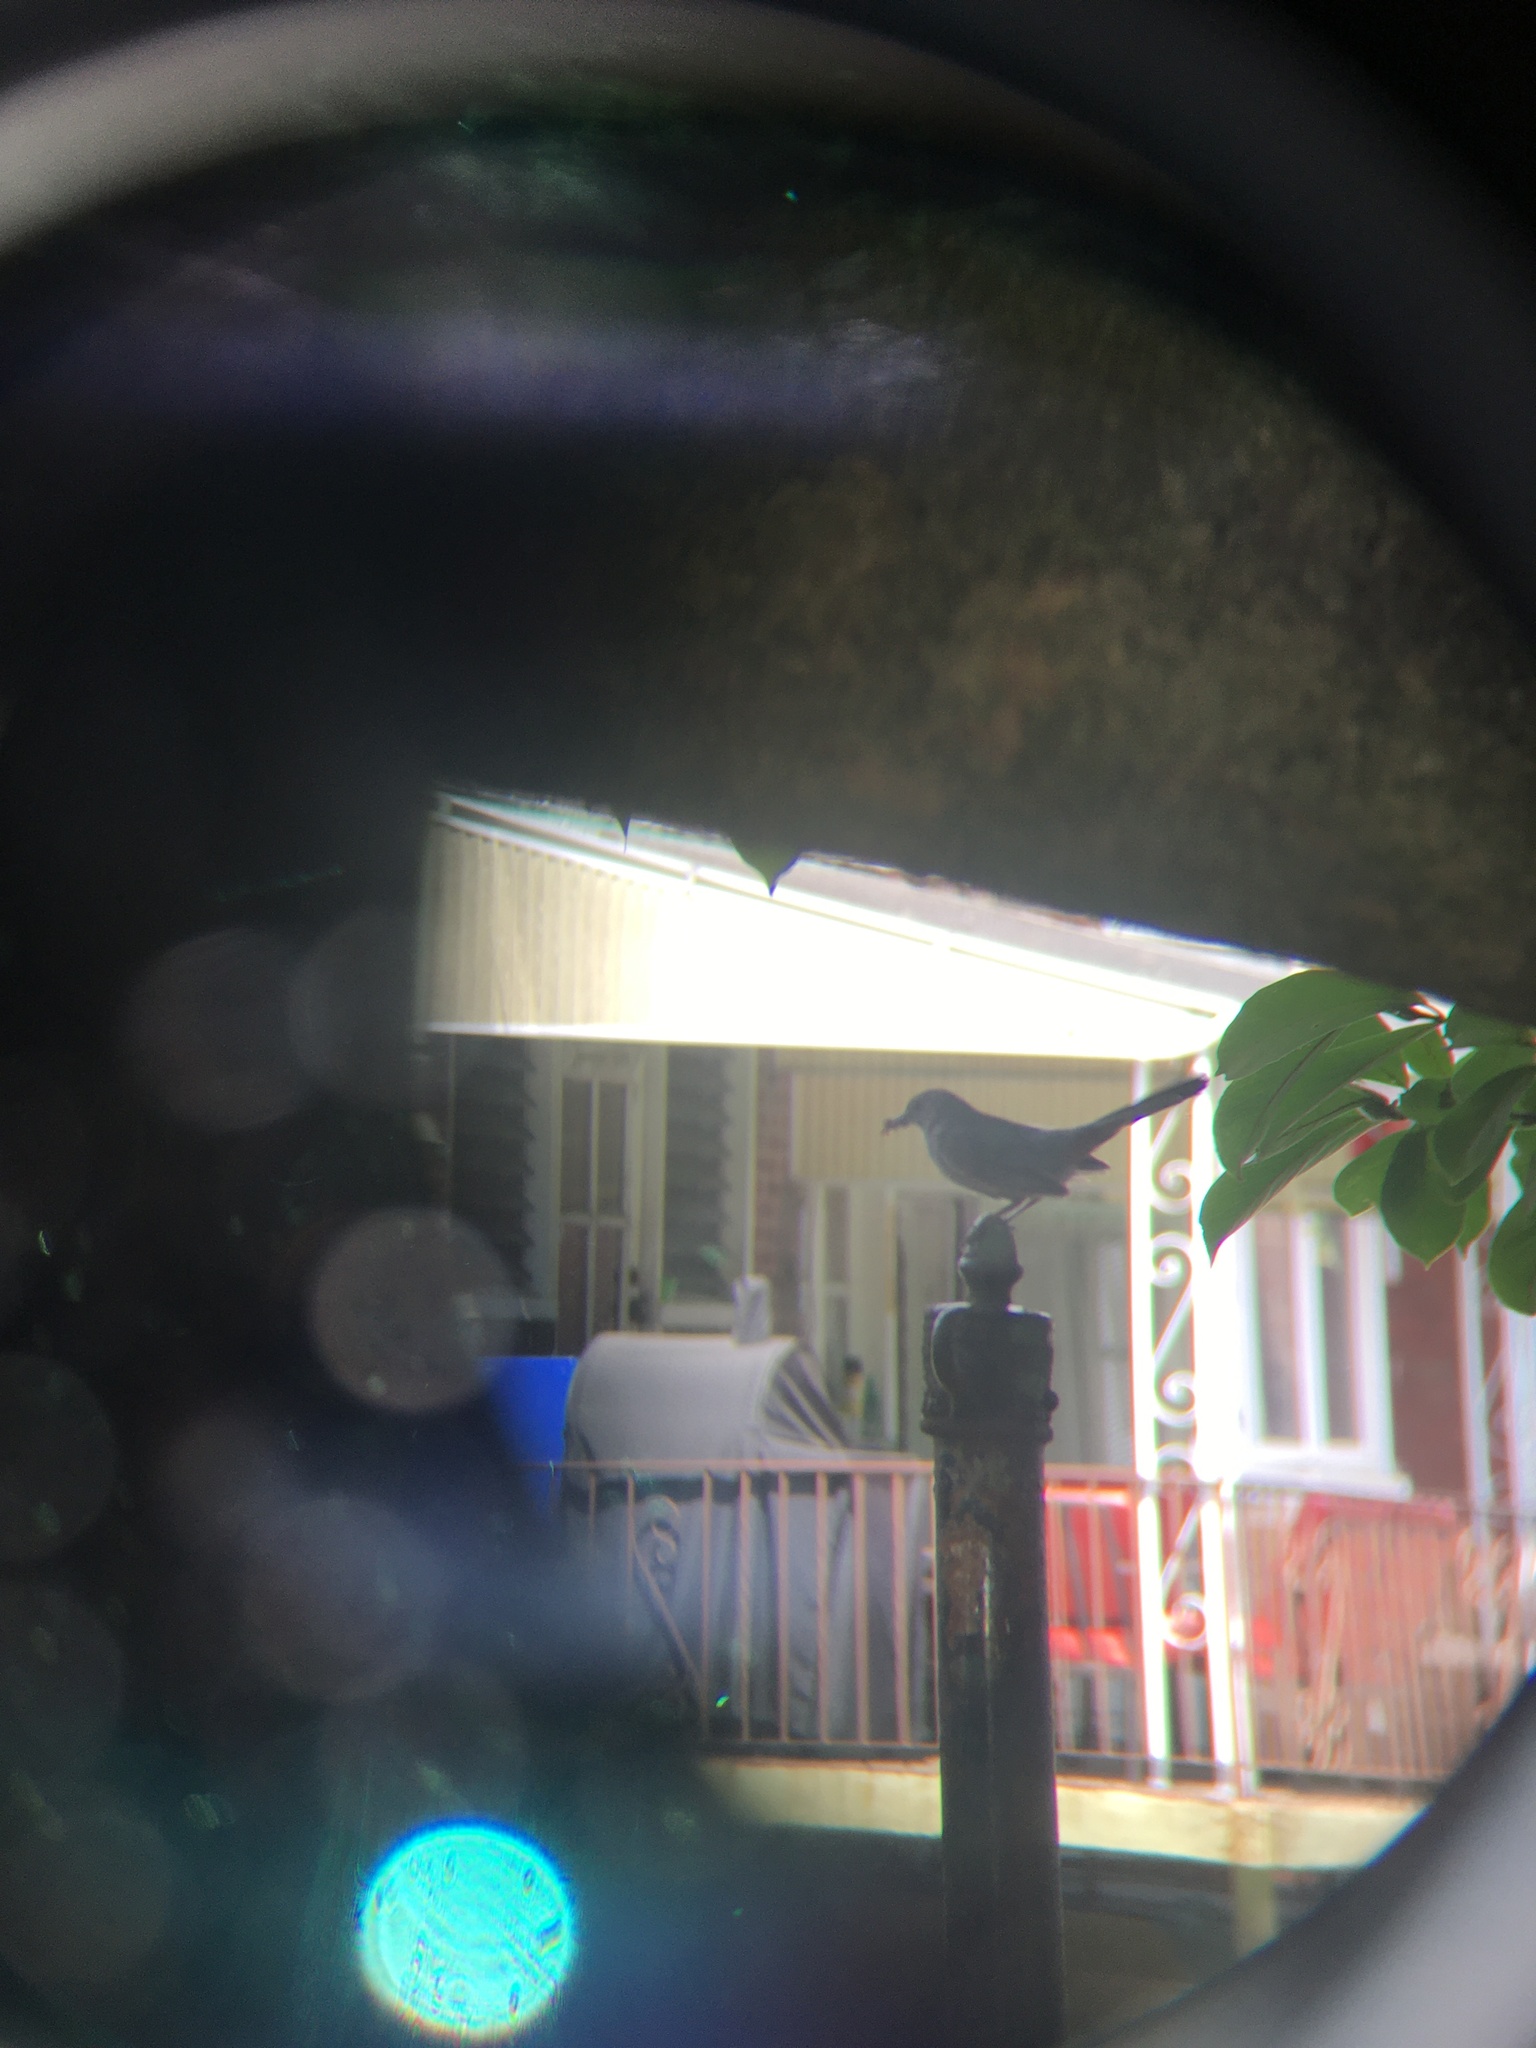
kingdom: Animalia
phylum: Chordata
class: Aves
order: Passeriformes
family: Mimidae
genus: Dumetella
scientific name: Dumetella carolinensis
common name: Gray catbird
